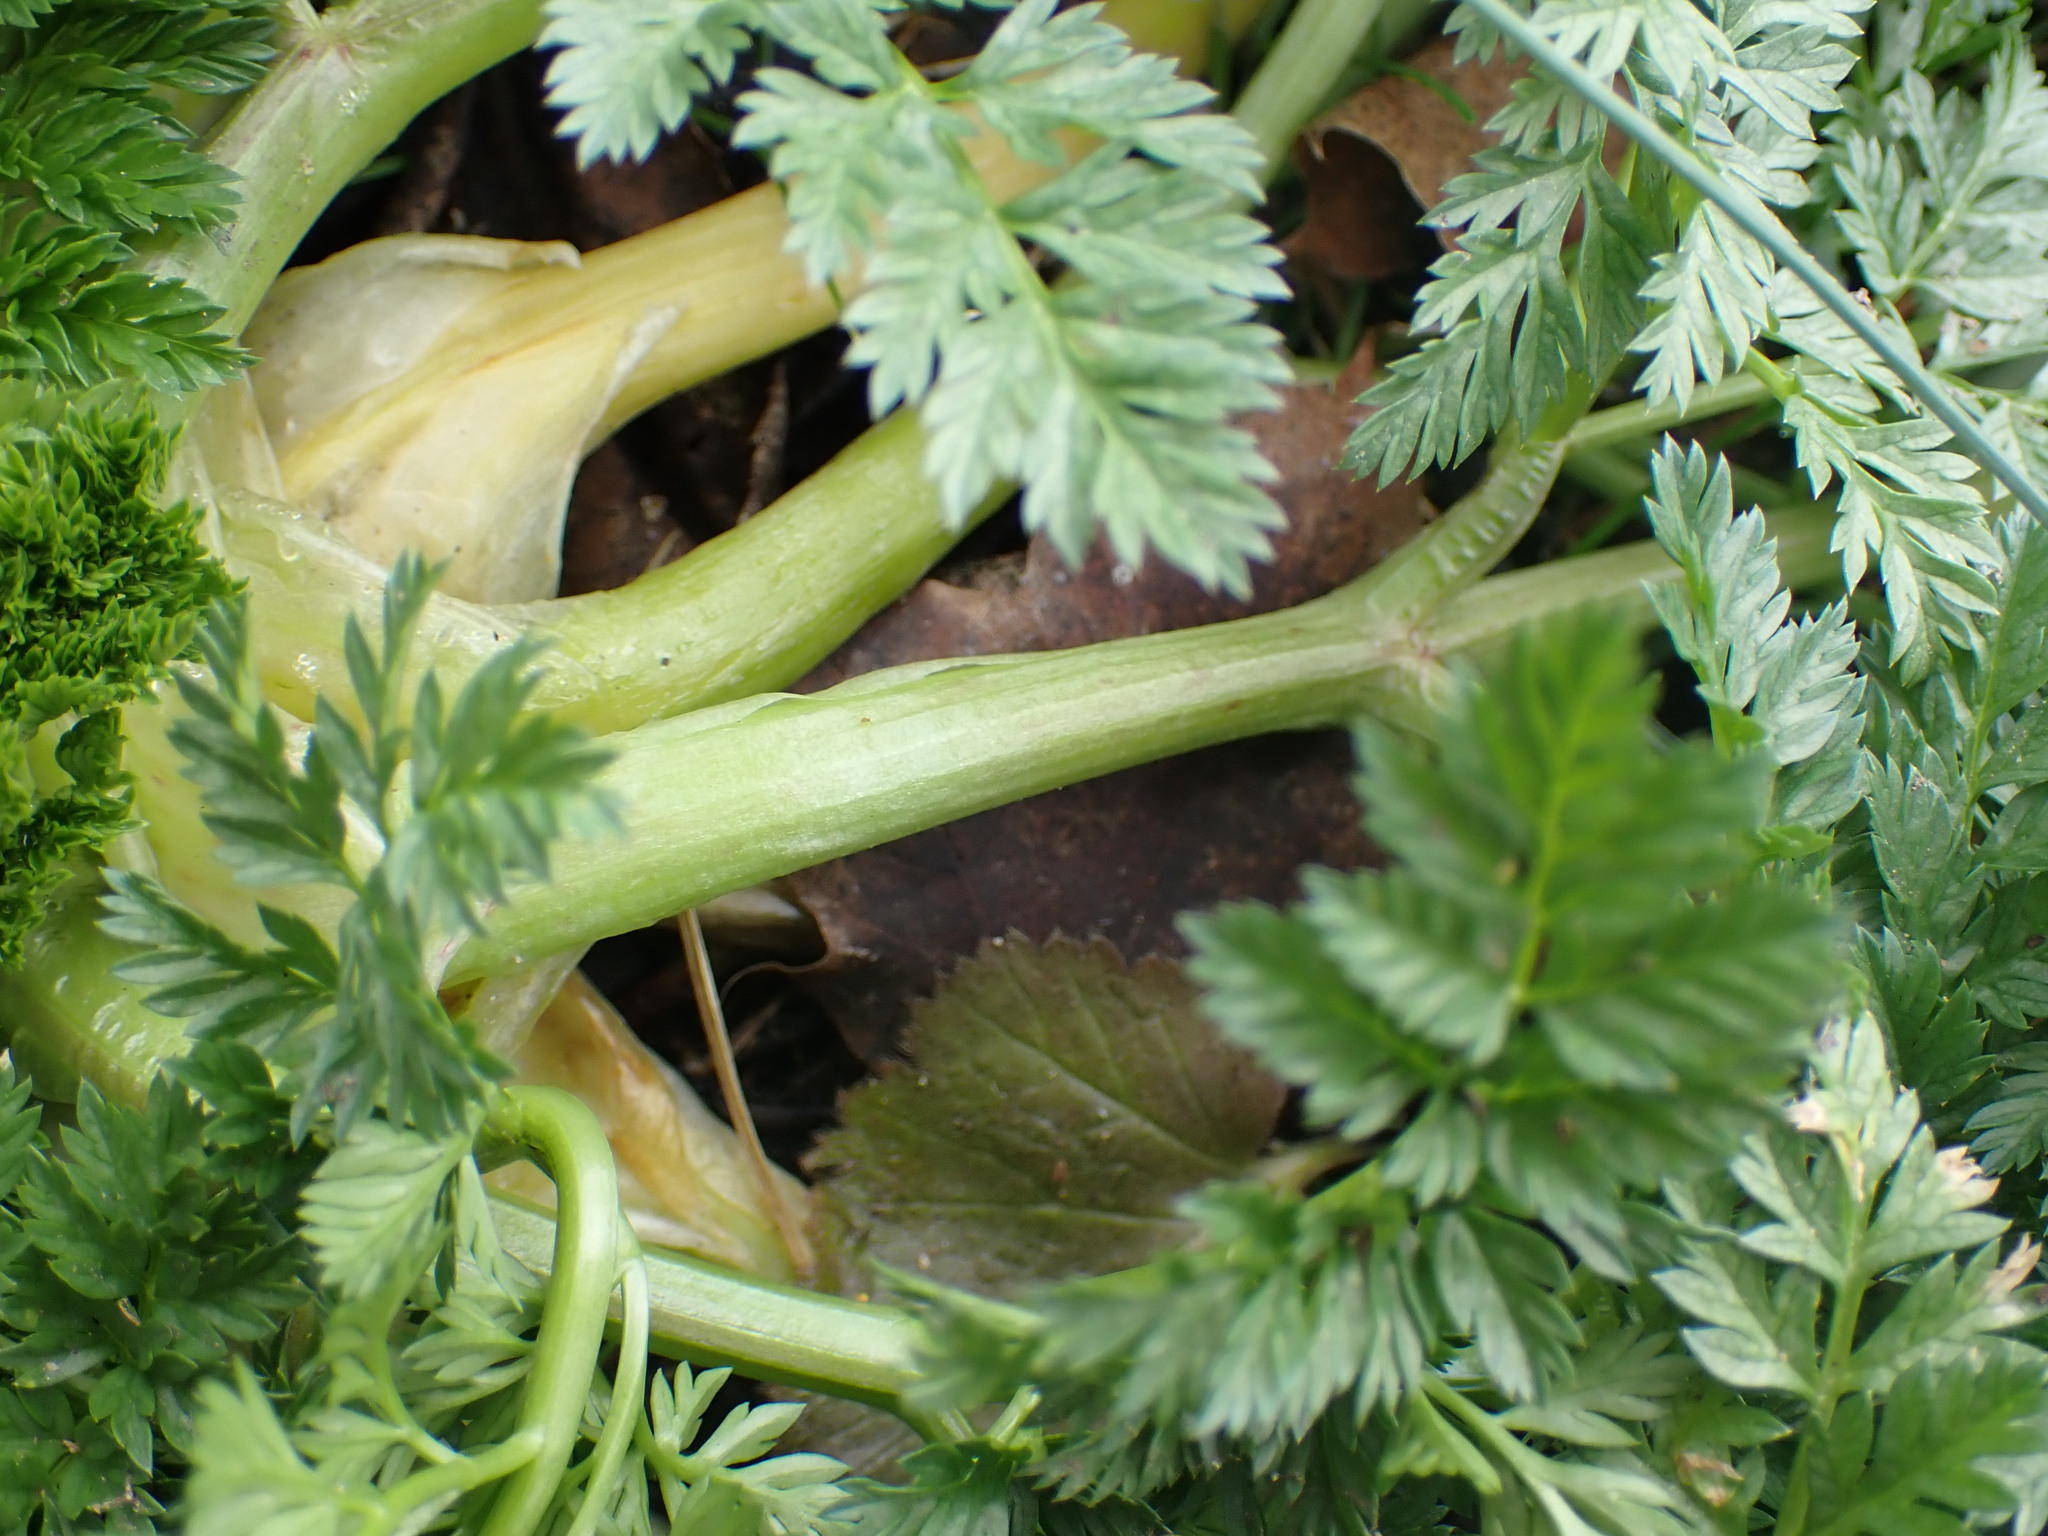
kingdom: Plantae
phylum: Tracheophyta
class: Magnoliopsida
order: Apiales
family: Apiaceae
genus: Conium
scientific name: Conium maculatum
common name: Hemlock
